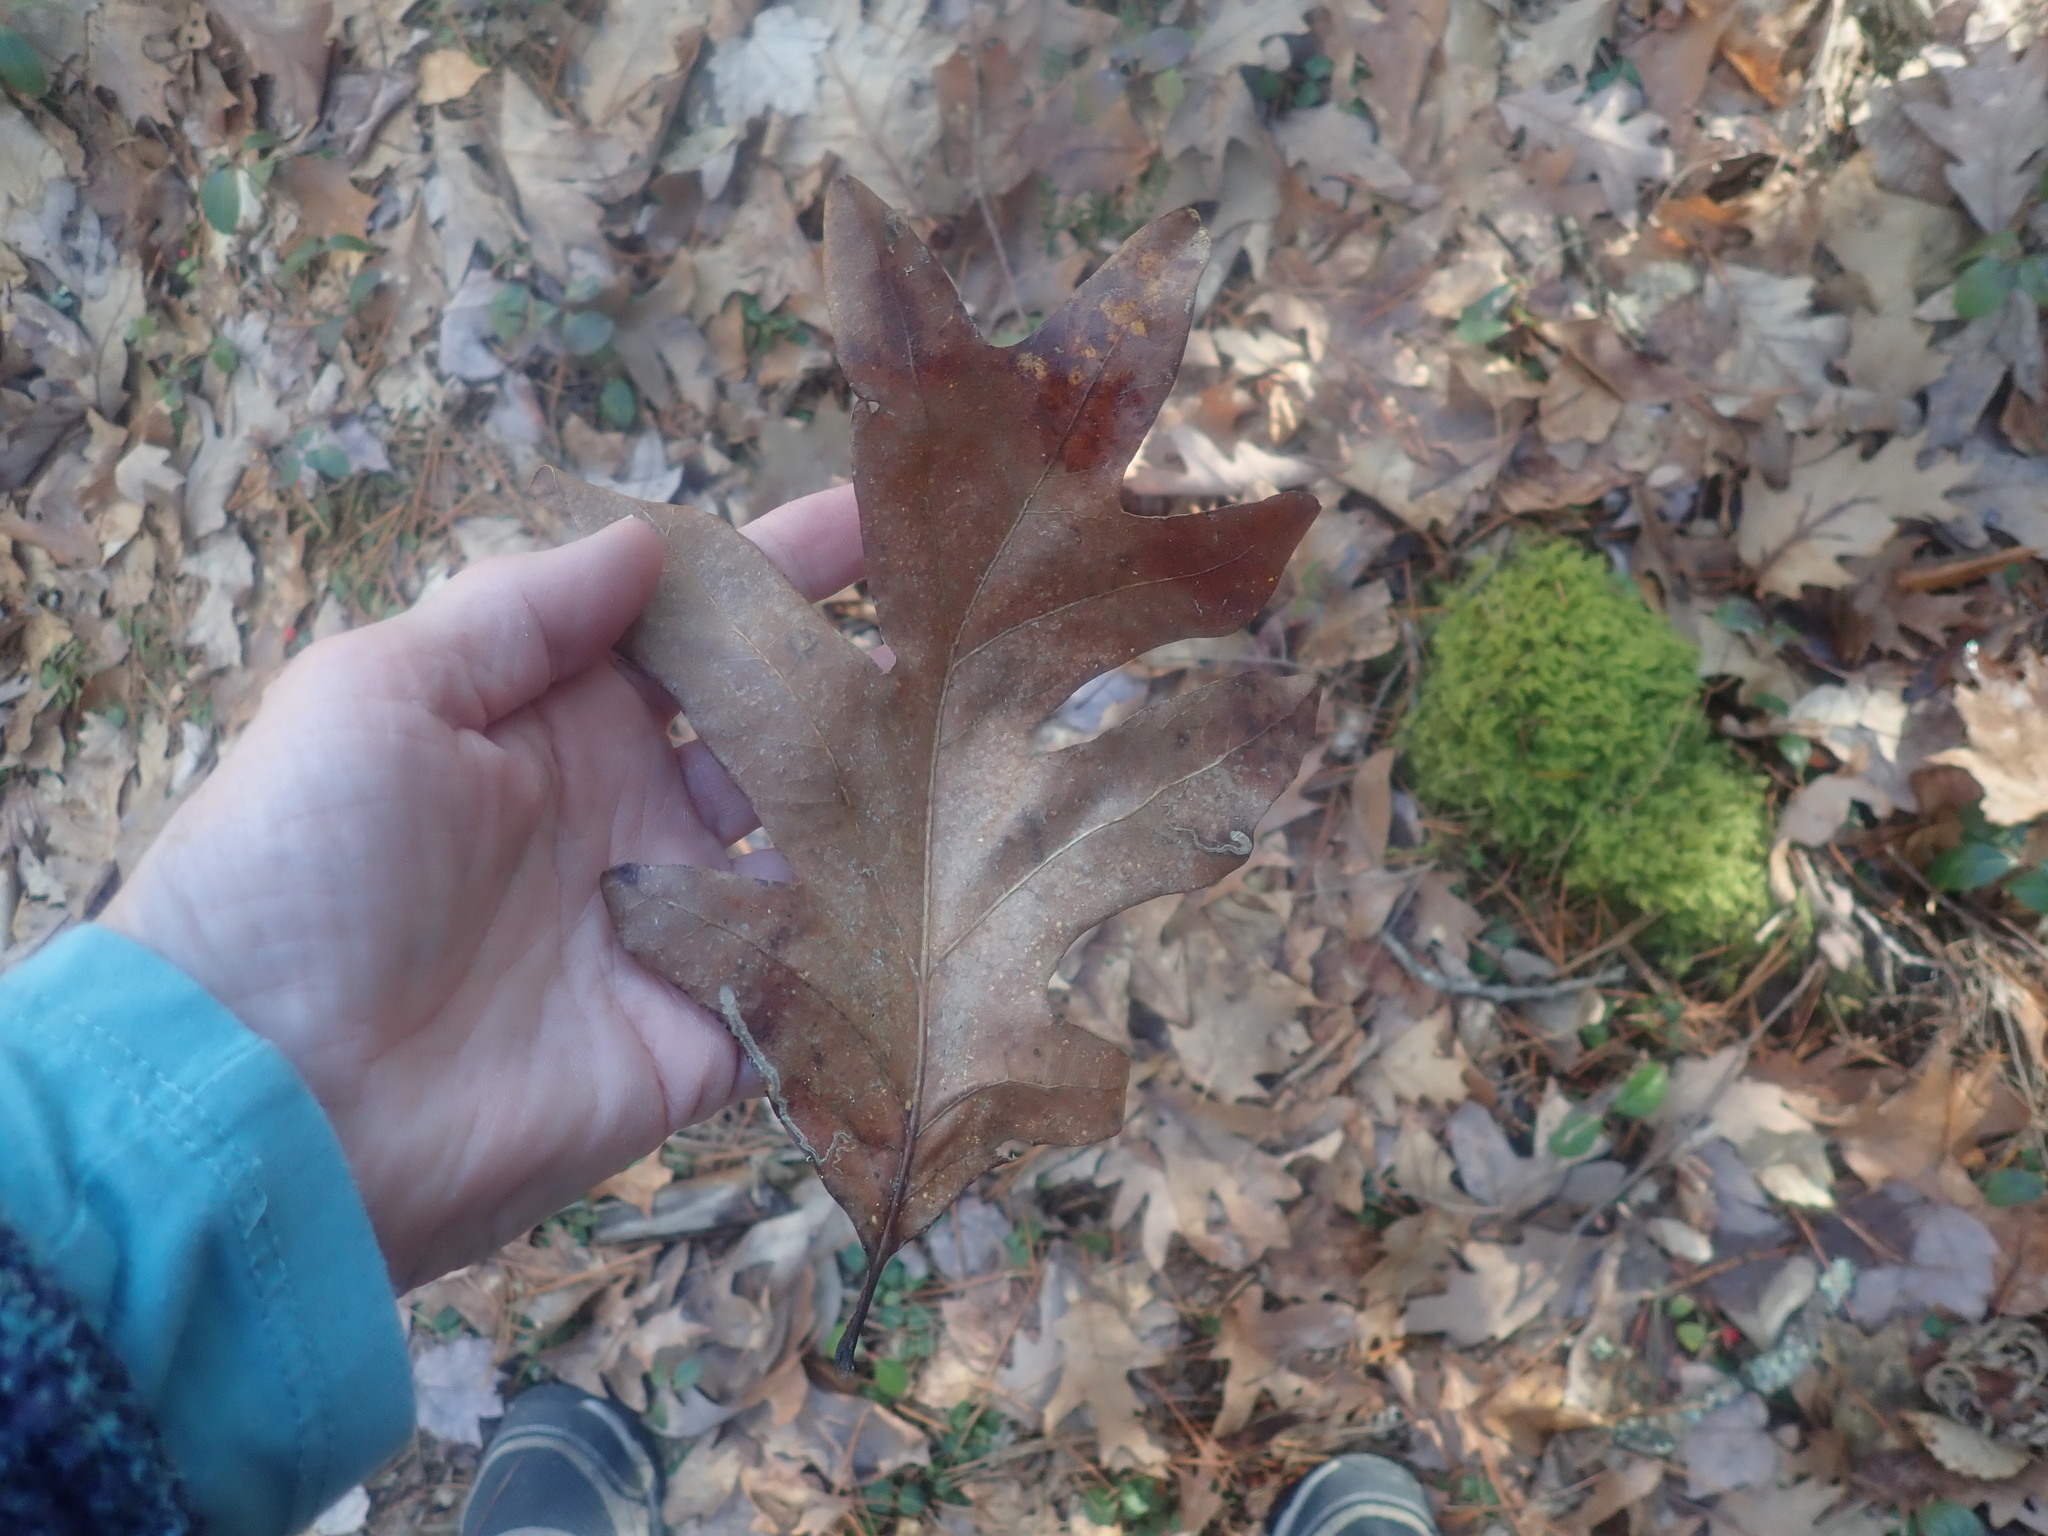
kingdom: Plantae
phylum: Tracheophyta
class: Magnoliopsida
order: Fagales
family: Fagaceae
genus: Quercus
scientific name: Quercus alba
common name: White oak
